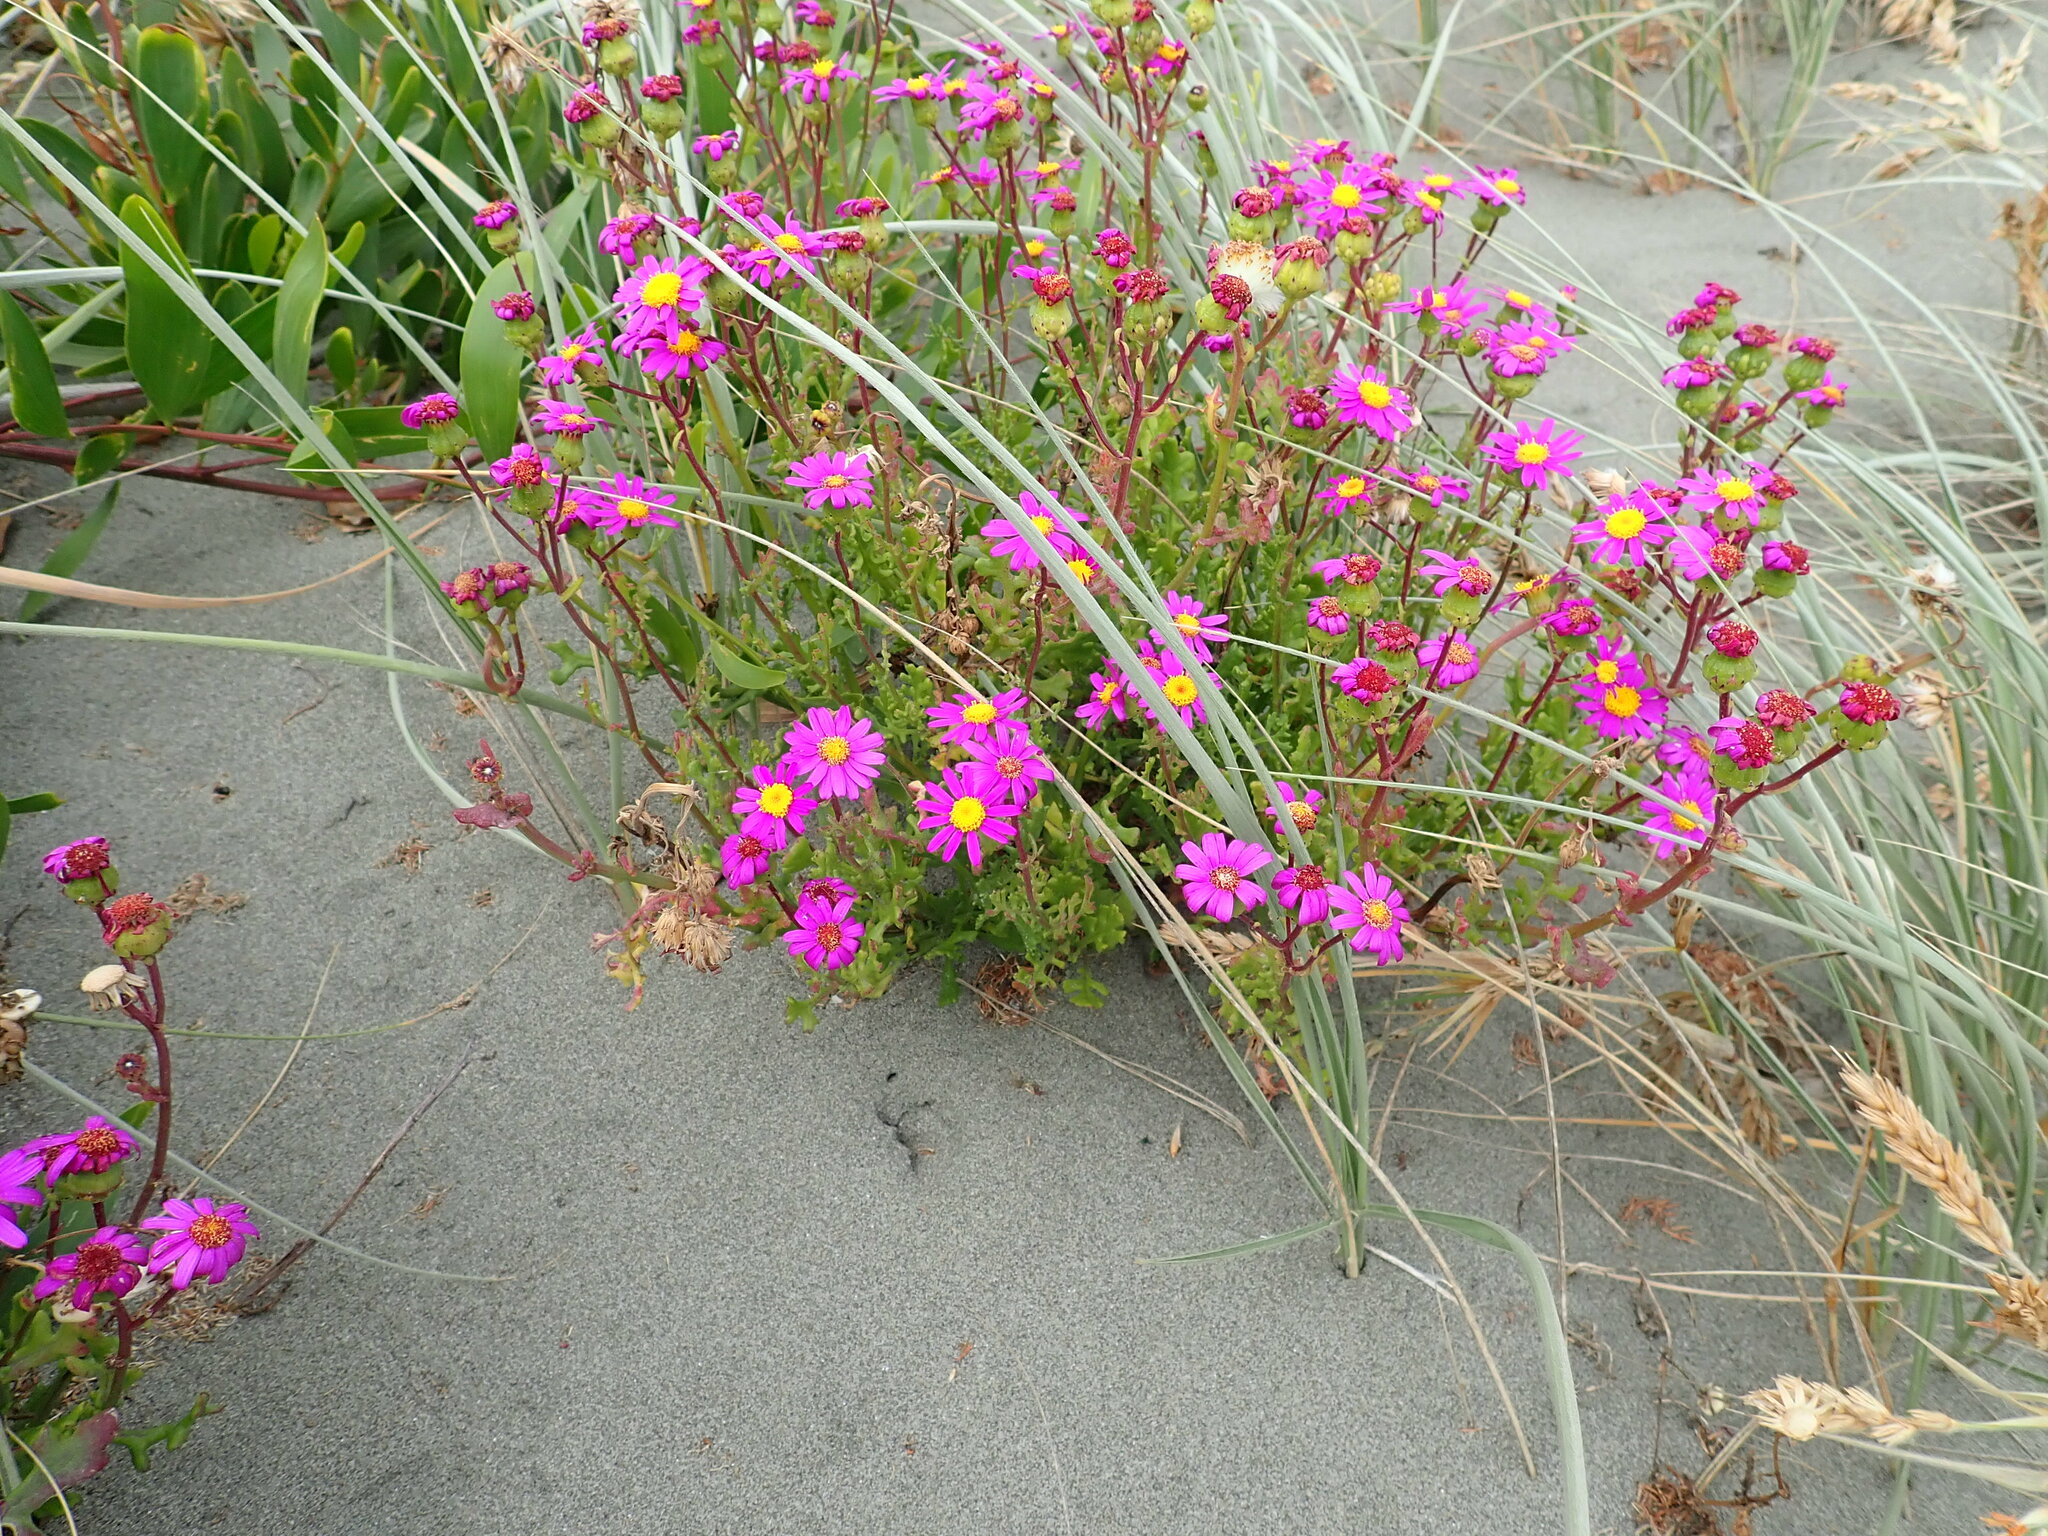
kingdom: Plantae
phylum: Tracheophyta
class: Magnoliopsida
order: Asterales
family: Asteraceae
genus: Senecio
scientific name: Senecio elegans
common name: Purple groundsel
